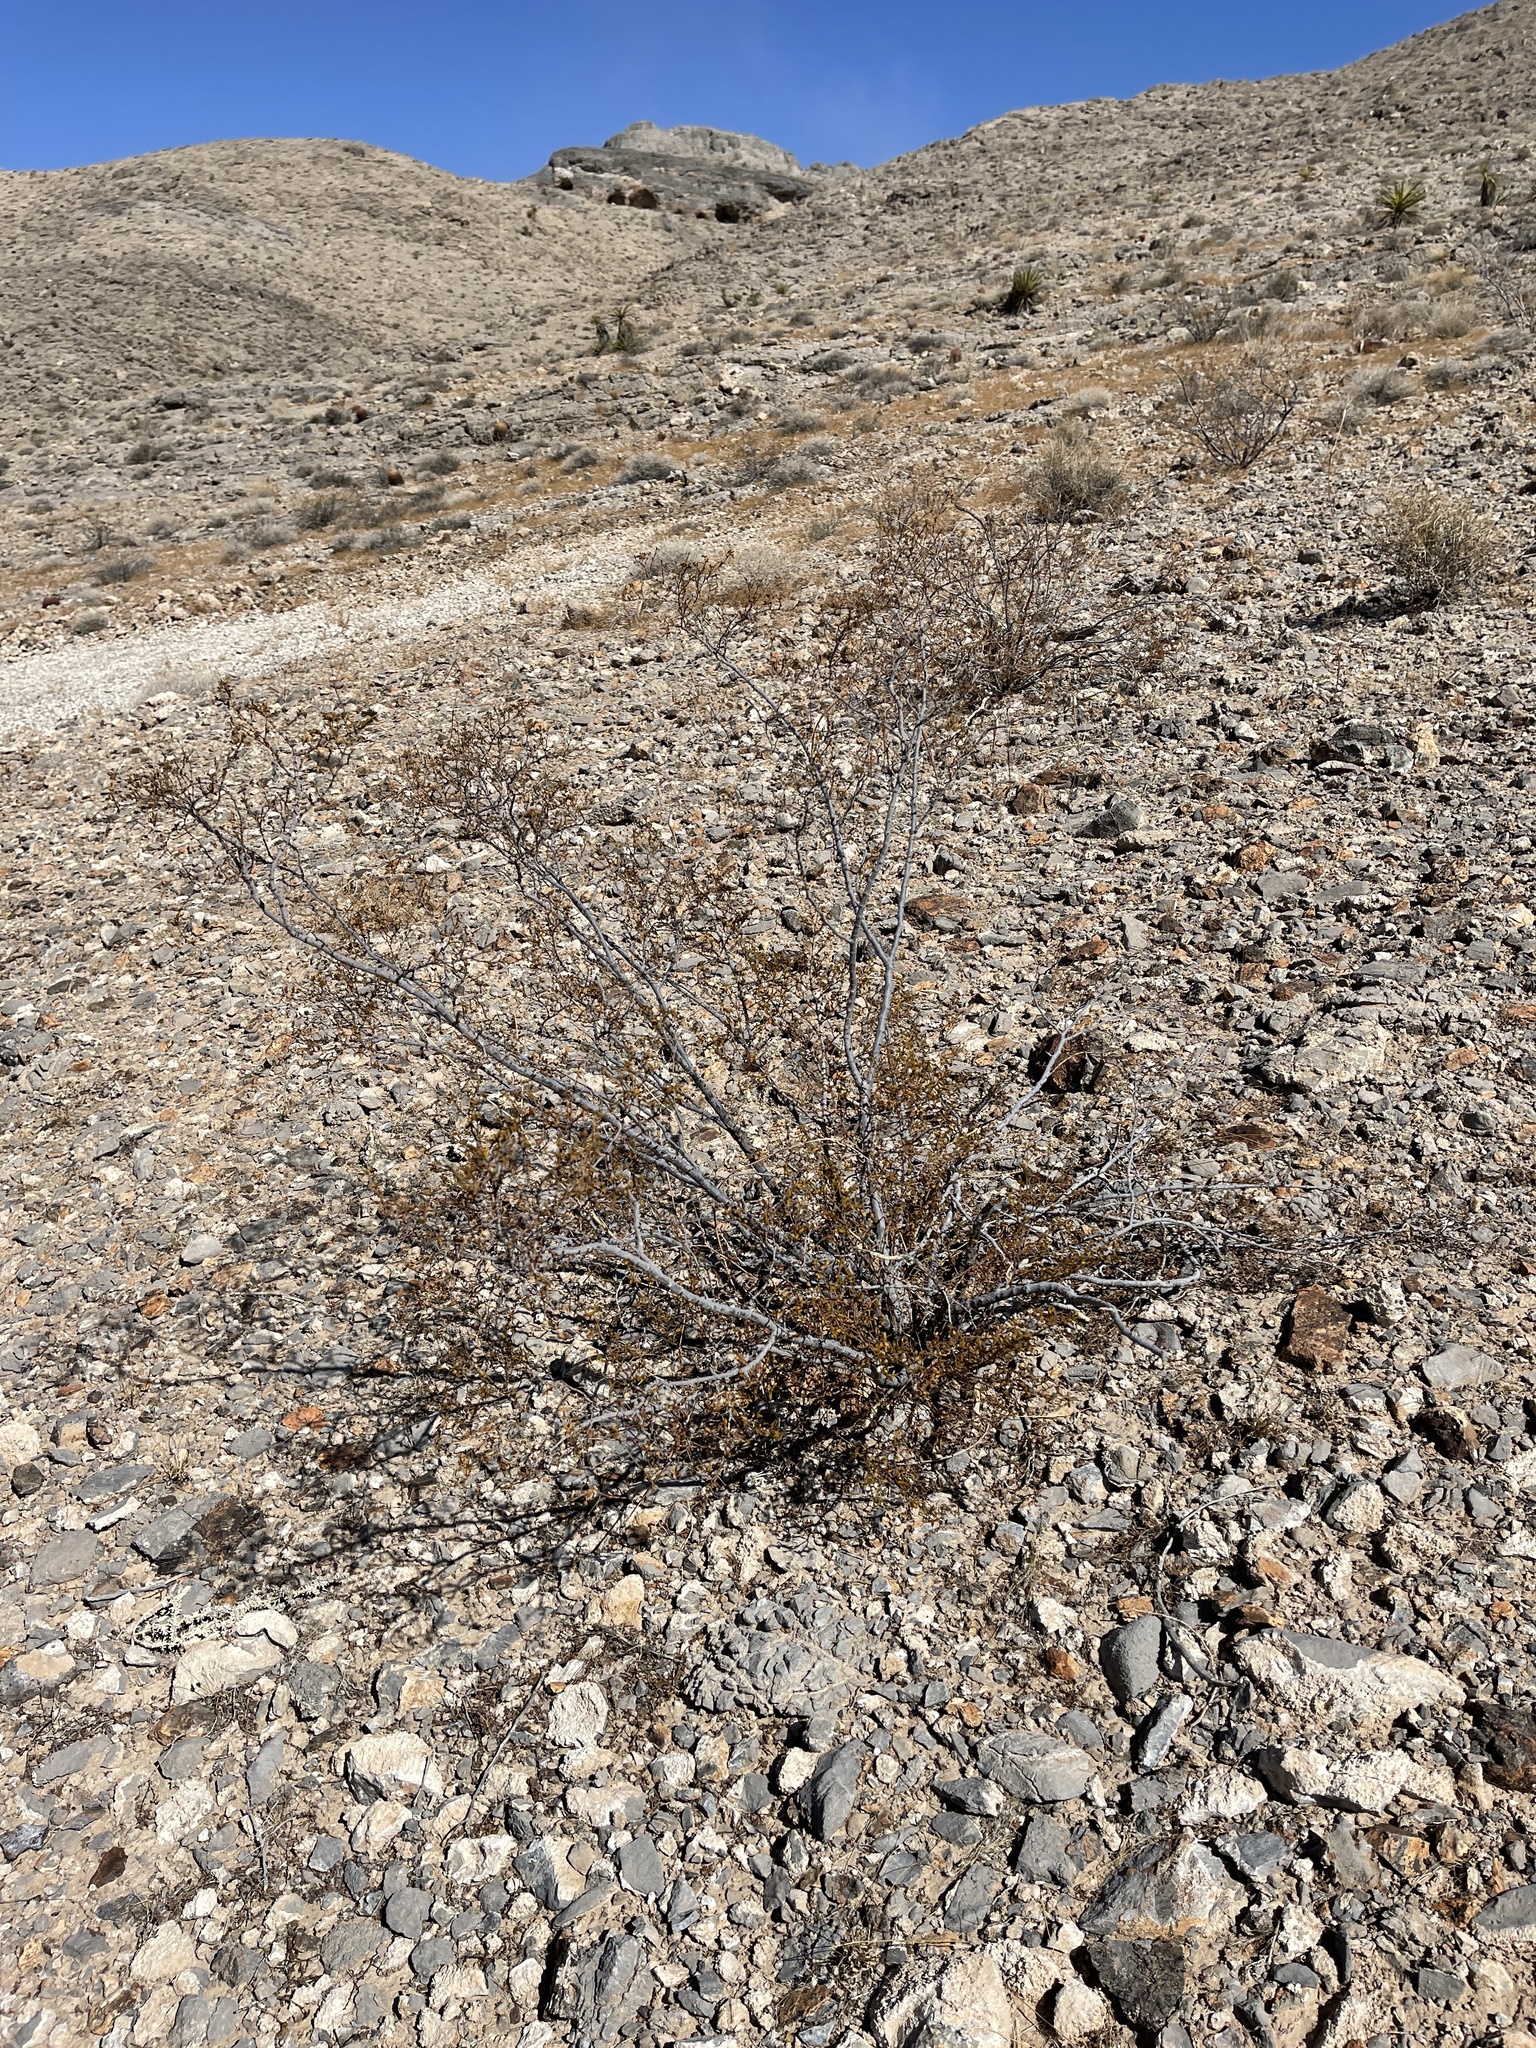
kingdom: Plantae
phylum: Tracheophyta
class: Magnoliopsida
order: Zygophyllales
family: Zygophyllaceae
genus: Larrea
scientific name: Larrea tridentata
